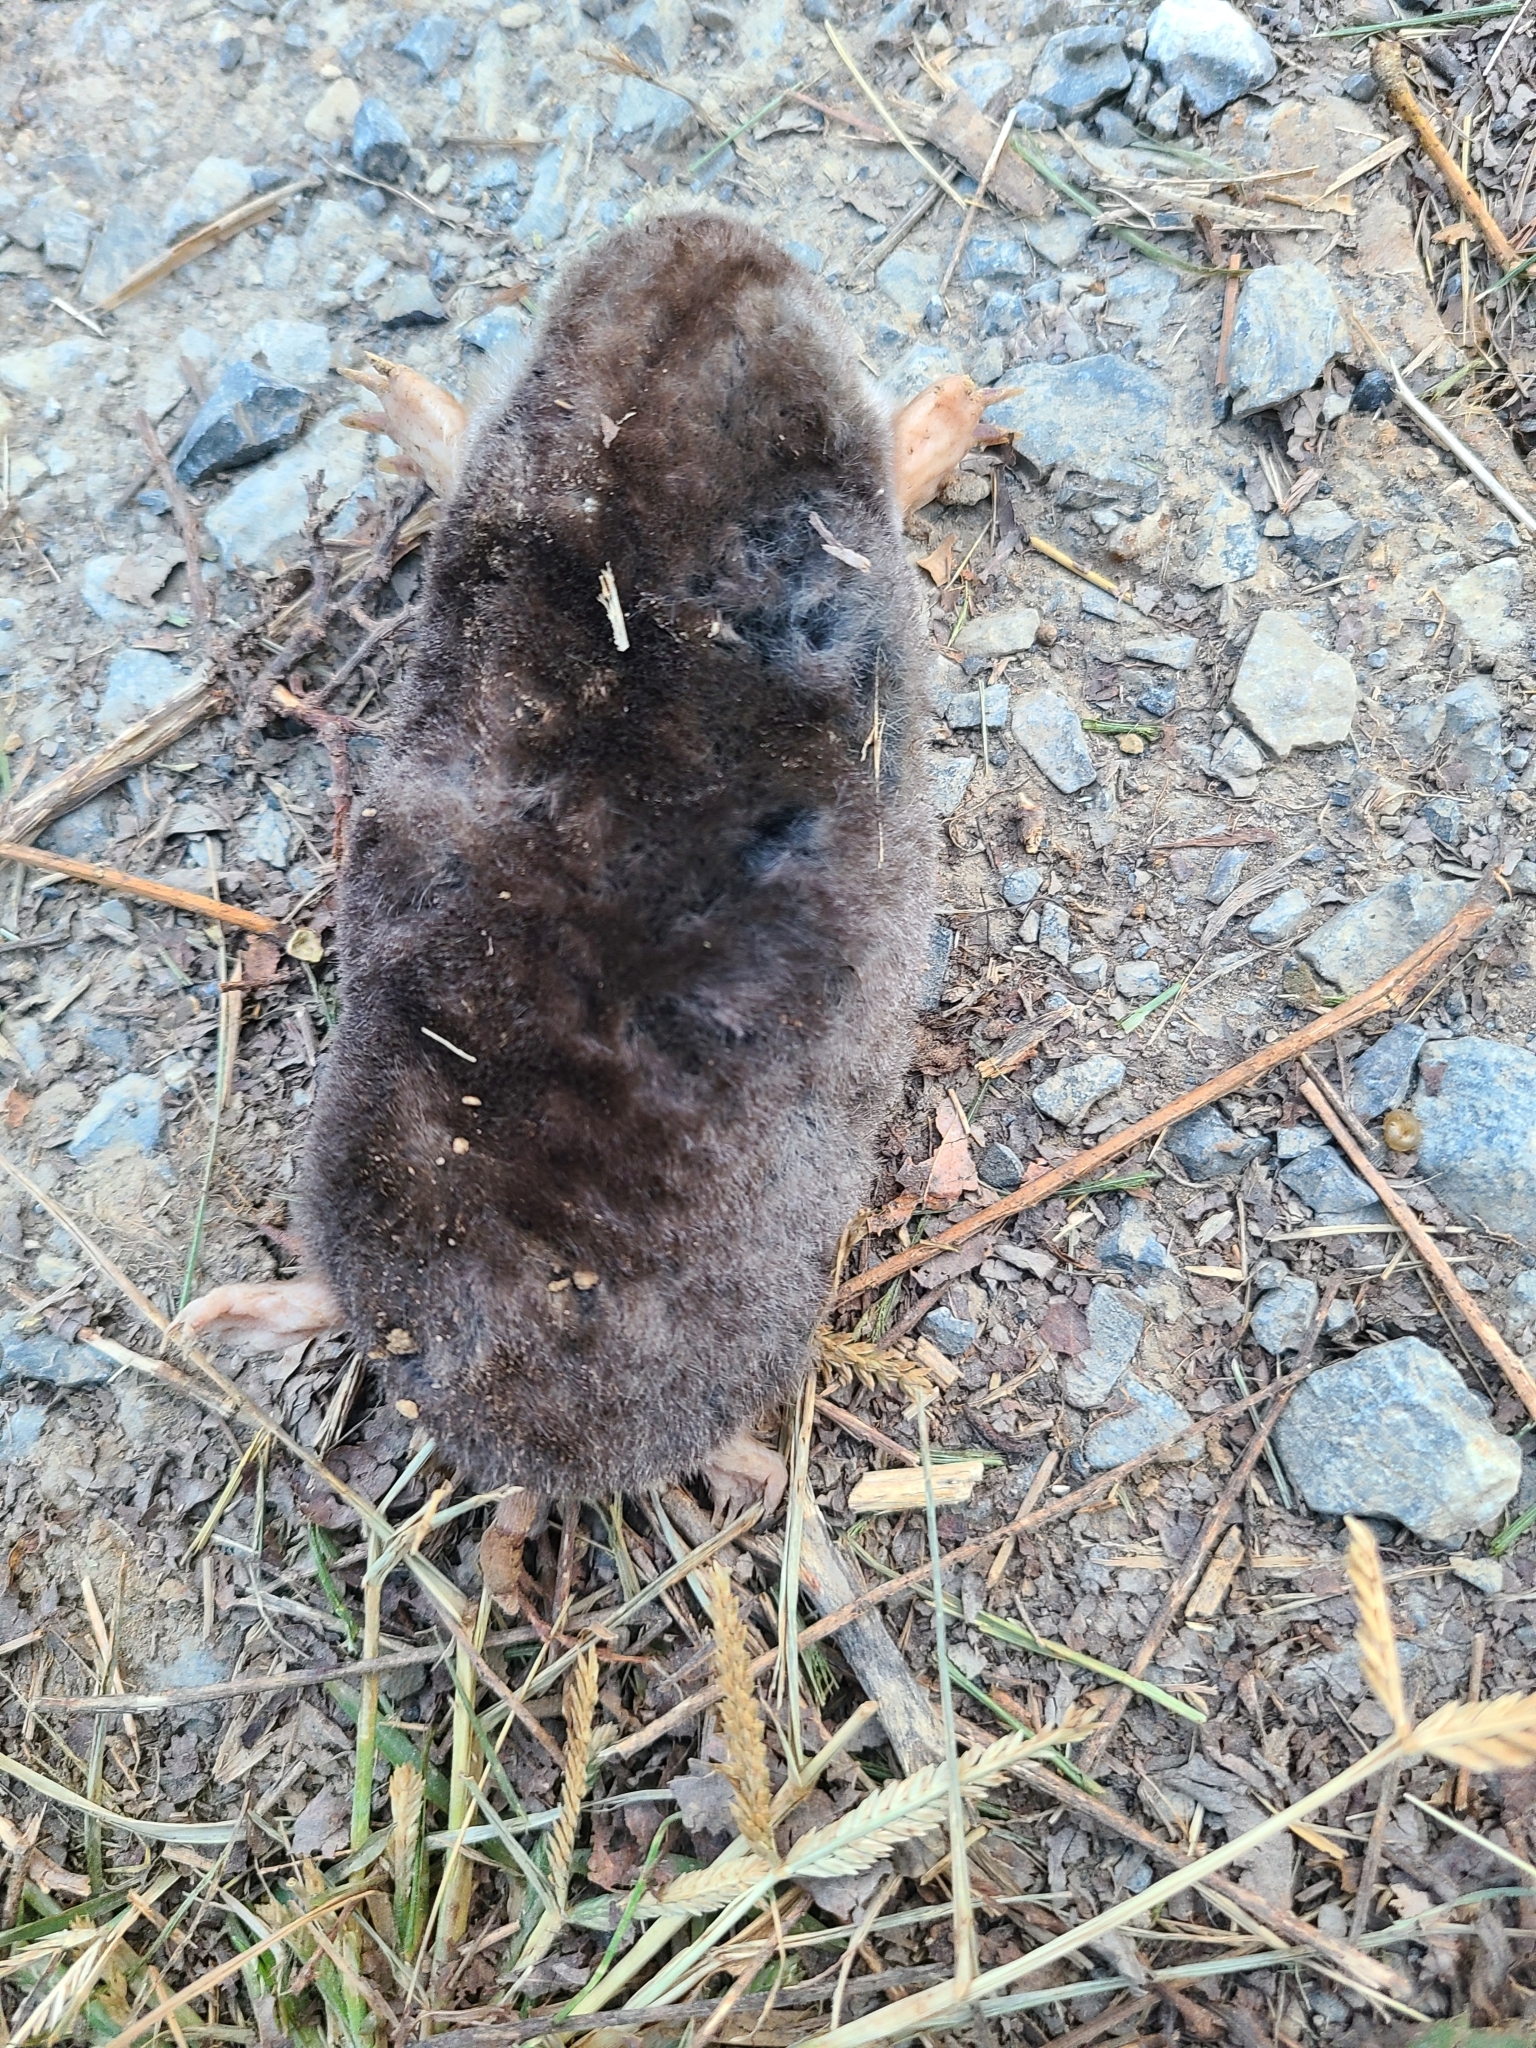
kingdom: Animalia
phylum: Chordata
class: Mammalia
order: Soricomorpha
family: Talpidae
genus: Scalopus
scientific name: Scalopus aquaticus
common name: Eastern mole
